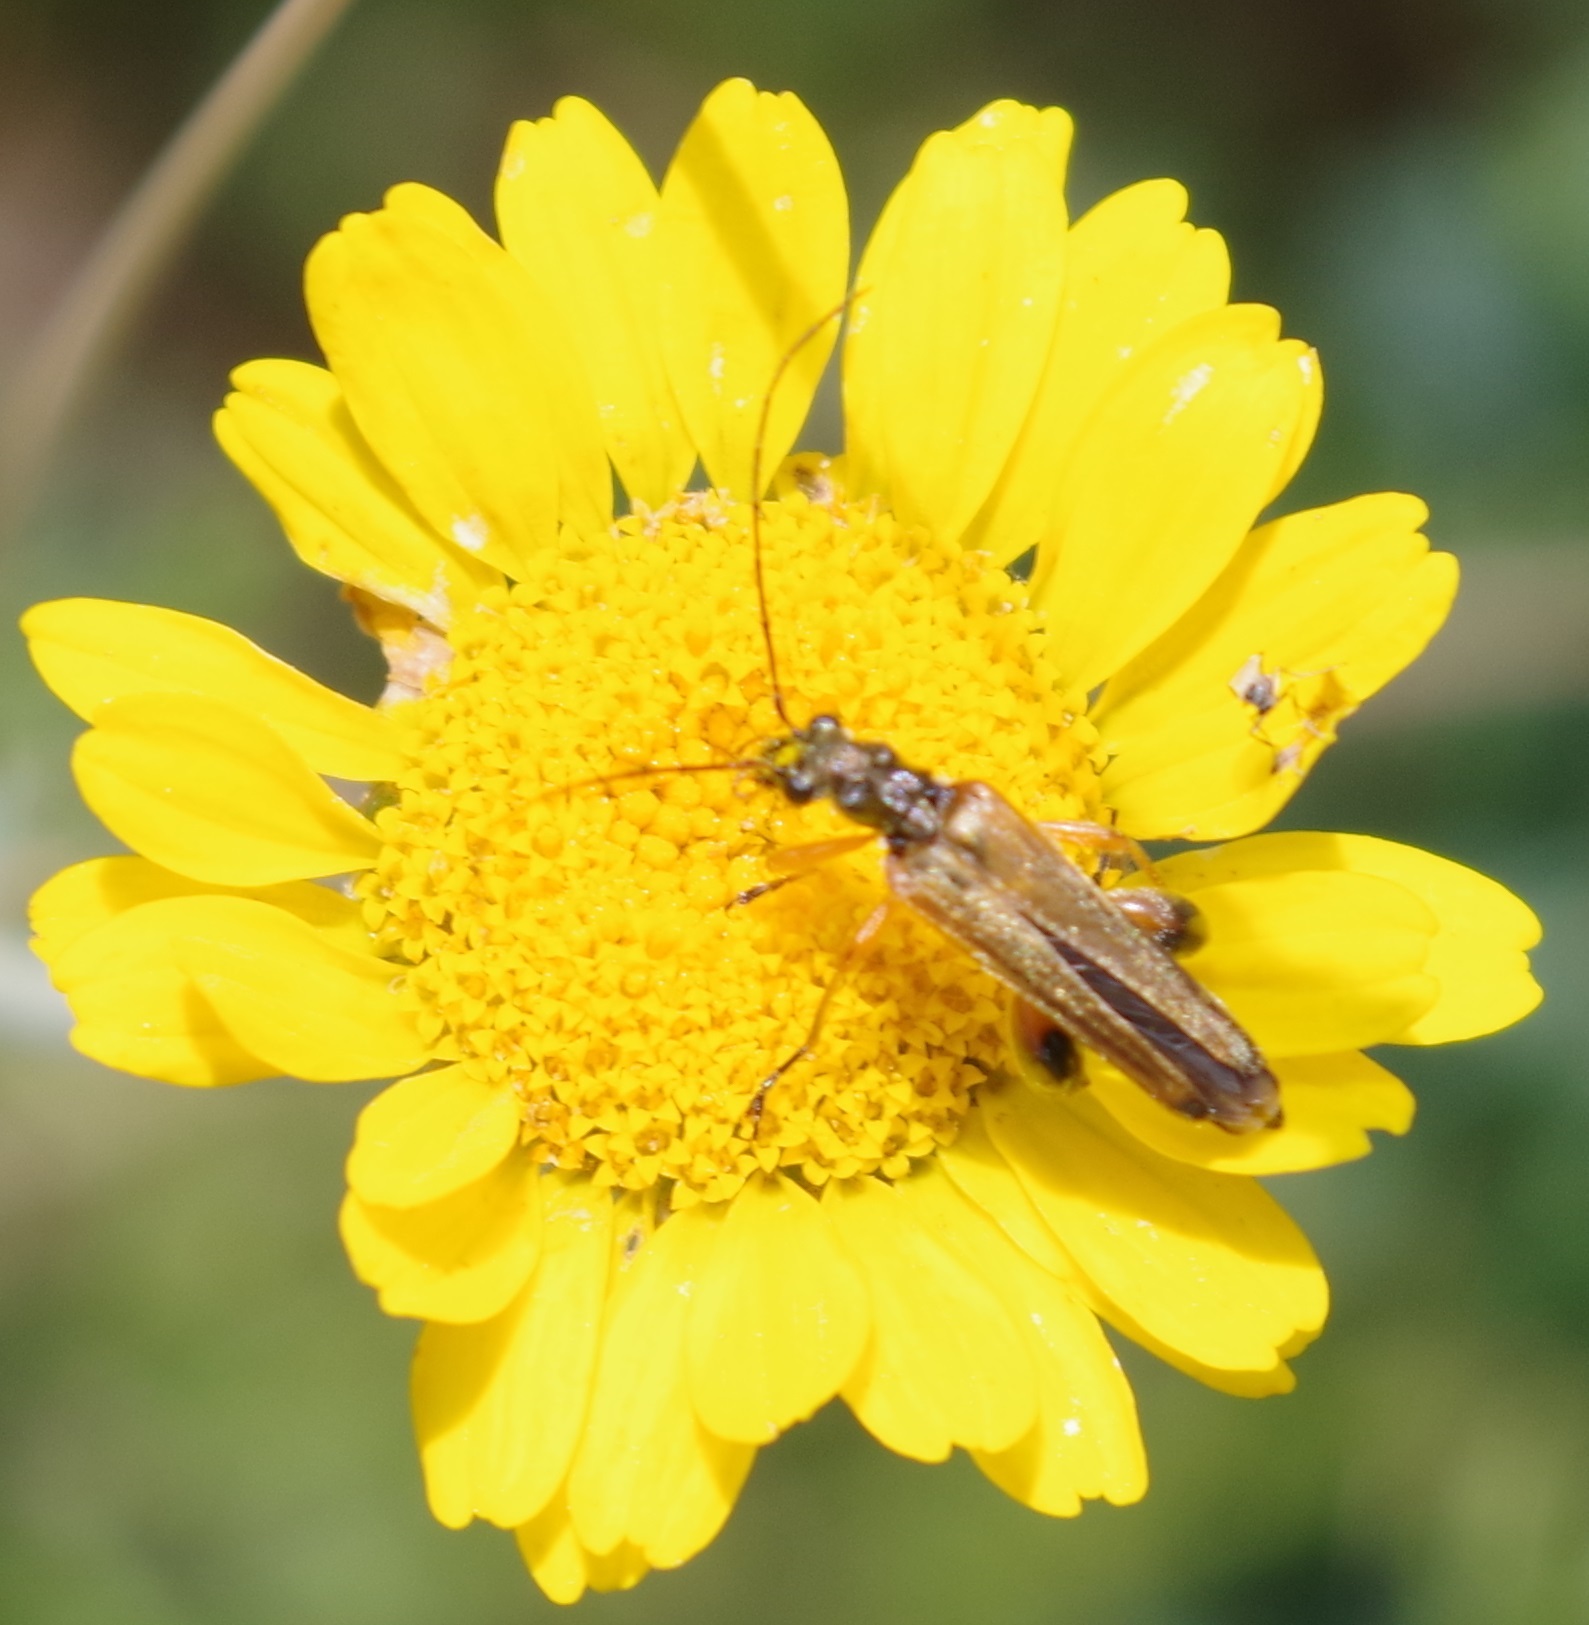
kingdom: Animalia
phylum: Arthropoda
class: Insecta
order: Coleoptera
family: Oedemeridae
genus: Oedemera
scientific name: Oedemera podagrariae
